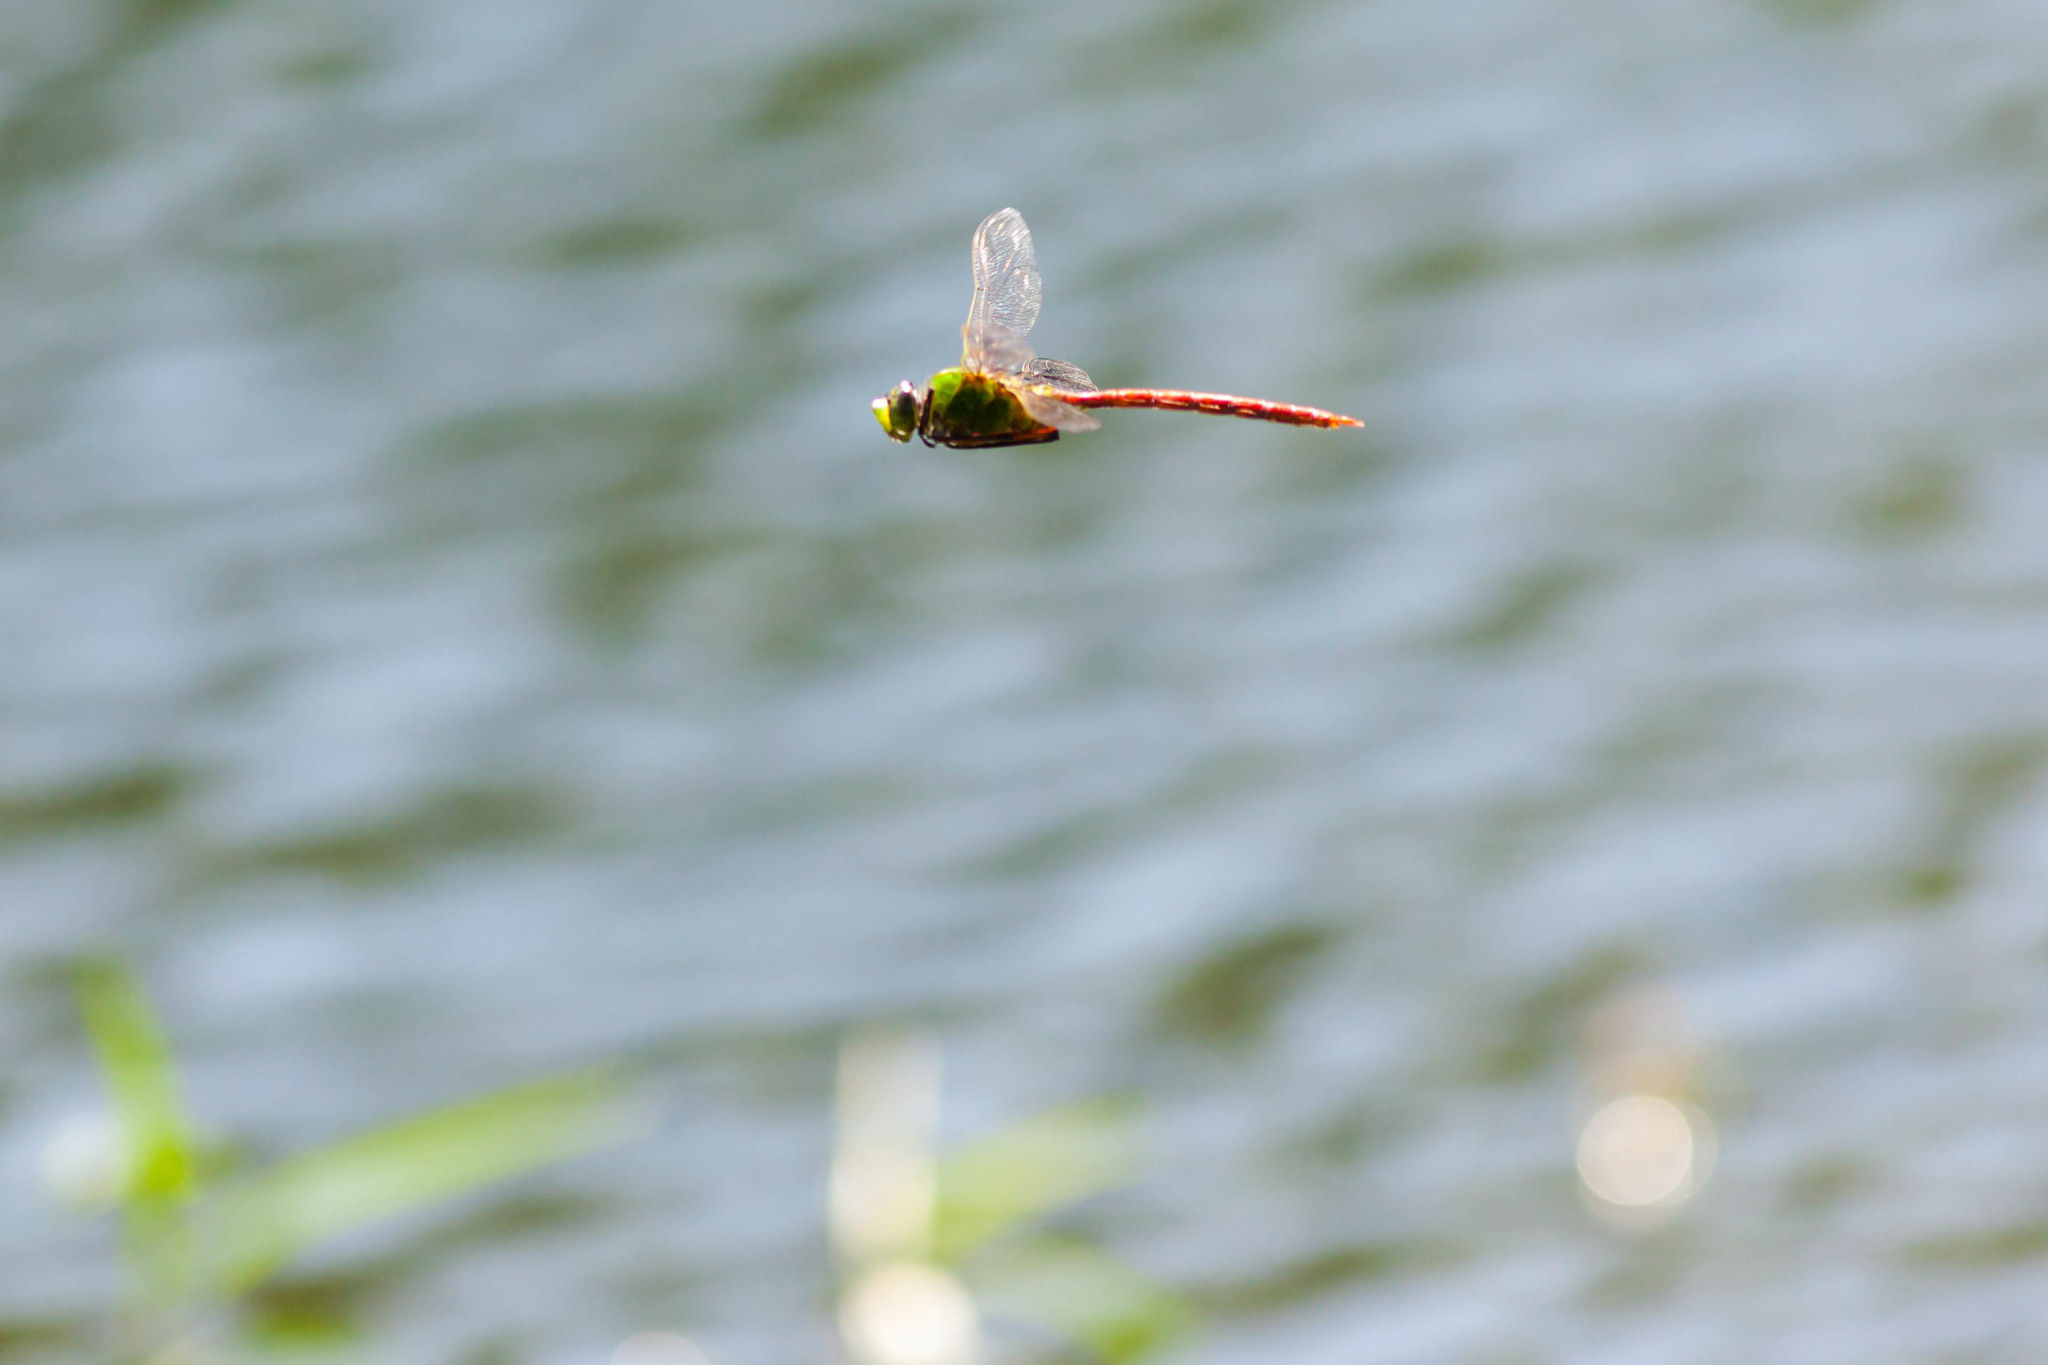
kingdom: Animalia
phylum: Arthropoda
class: Insecta
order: Odonata
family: Aeshnidae
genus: Anax
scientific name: Anax longipes
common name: Comet darner
